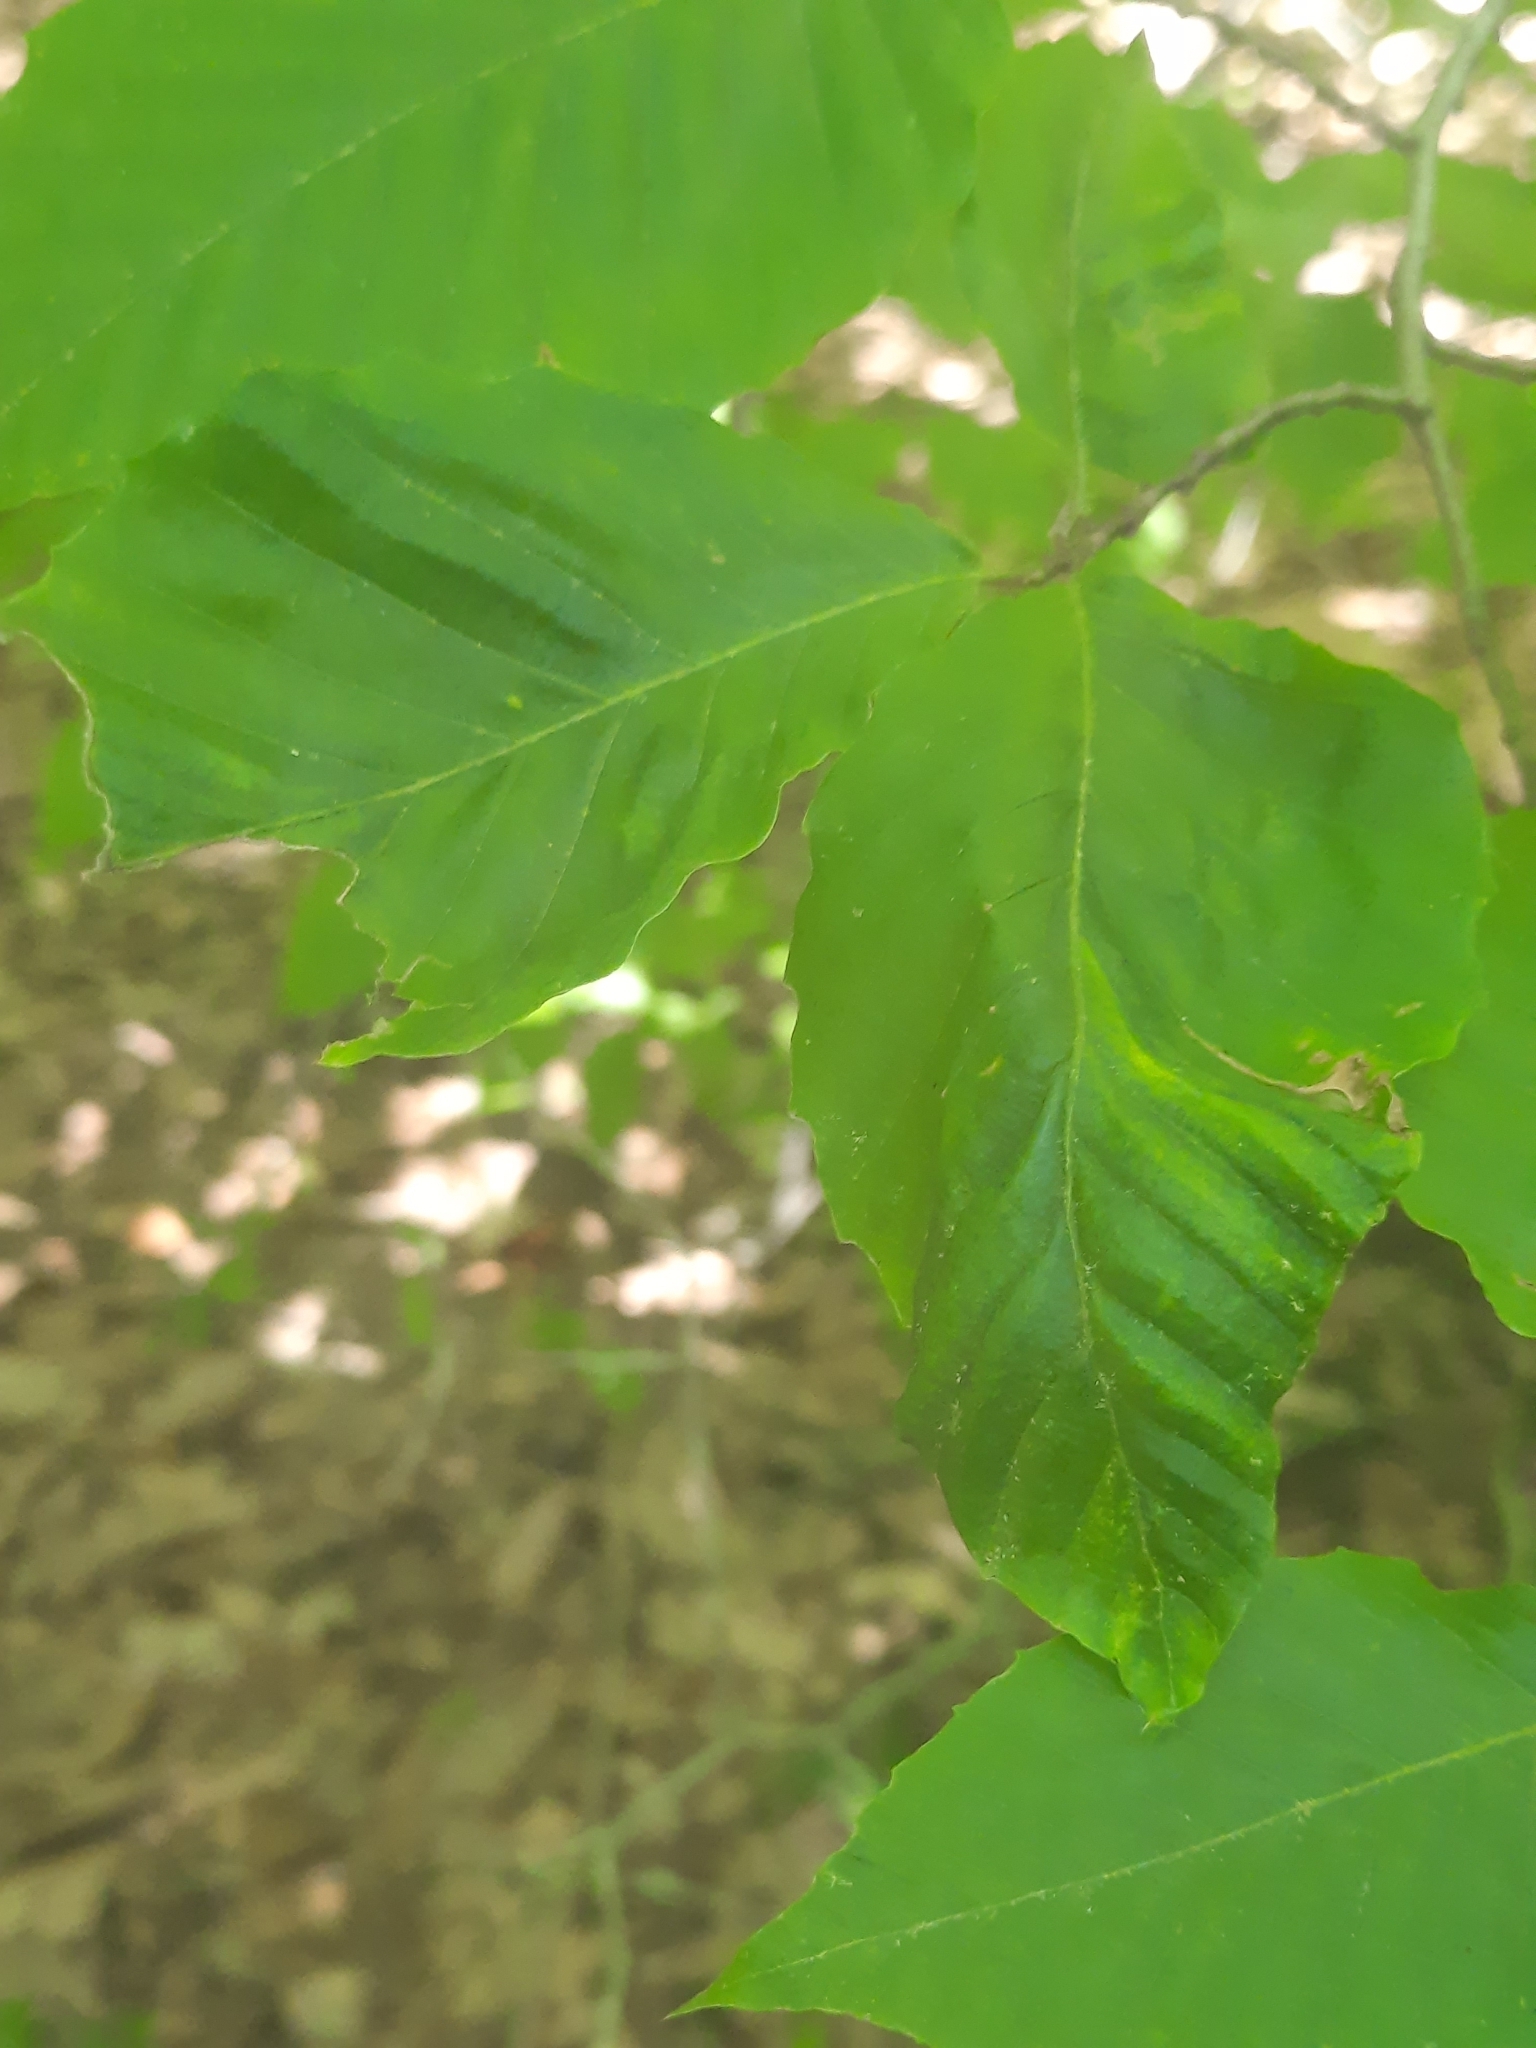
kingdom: Animalia
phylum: Nematoda
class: Chromadorea
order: Rhabditida
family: Anguinidae
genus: Litylenchus
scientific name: Litylenchus crenatae
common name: Beech leaf disease
